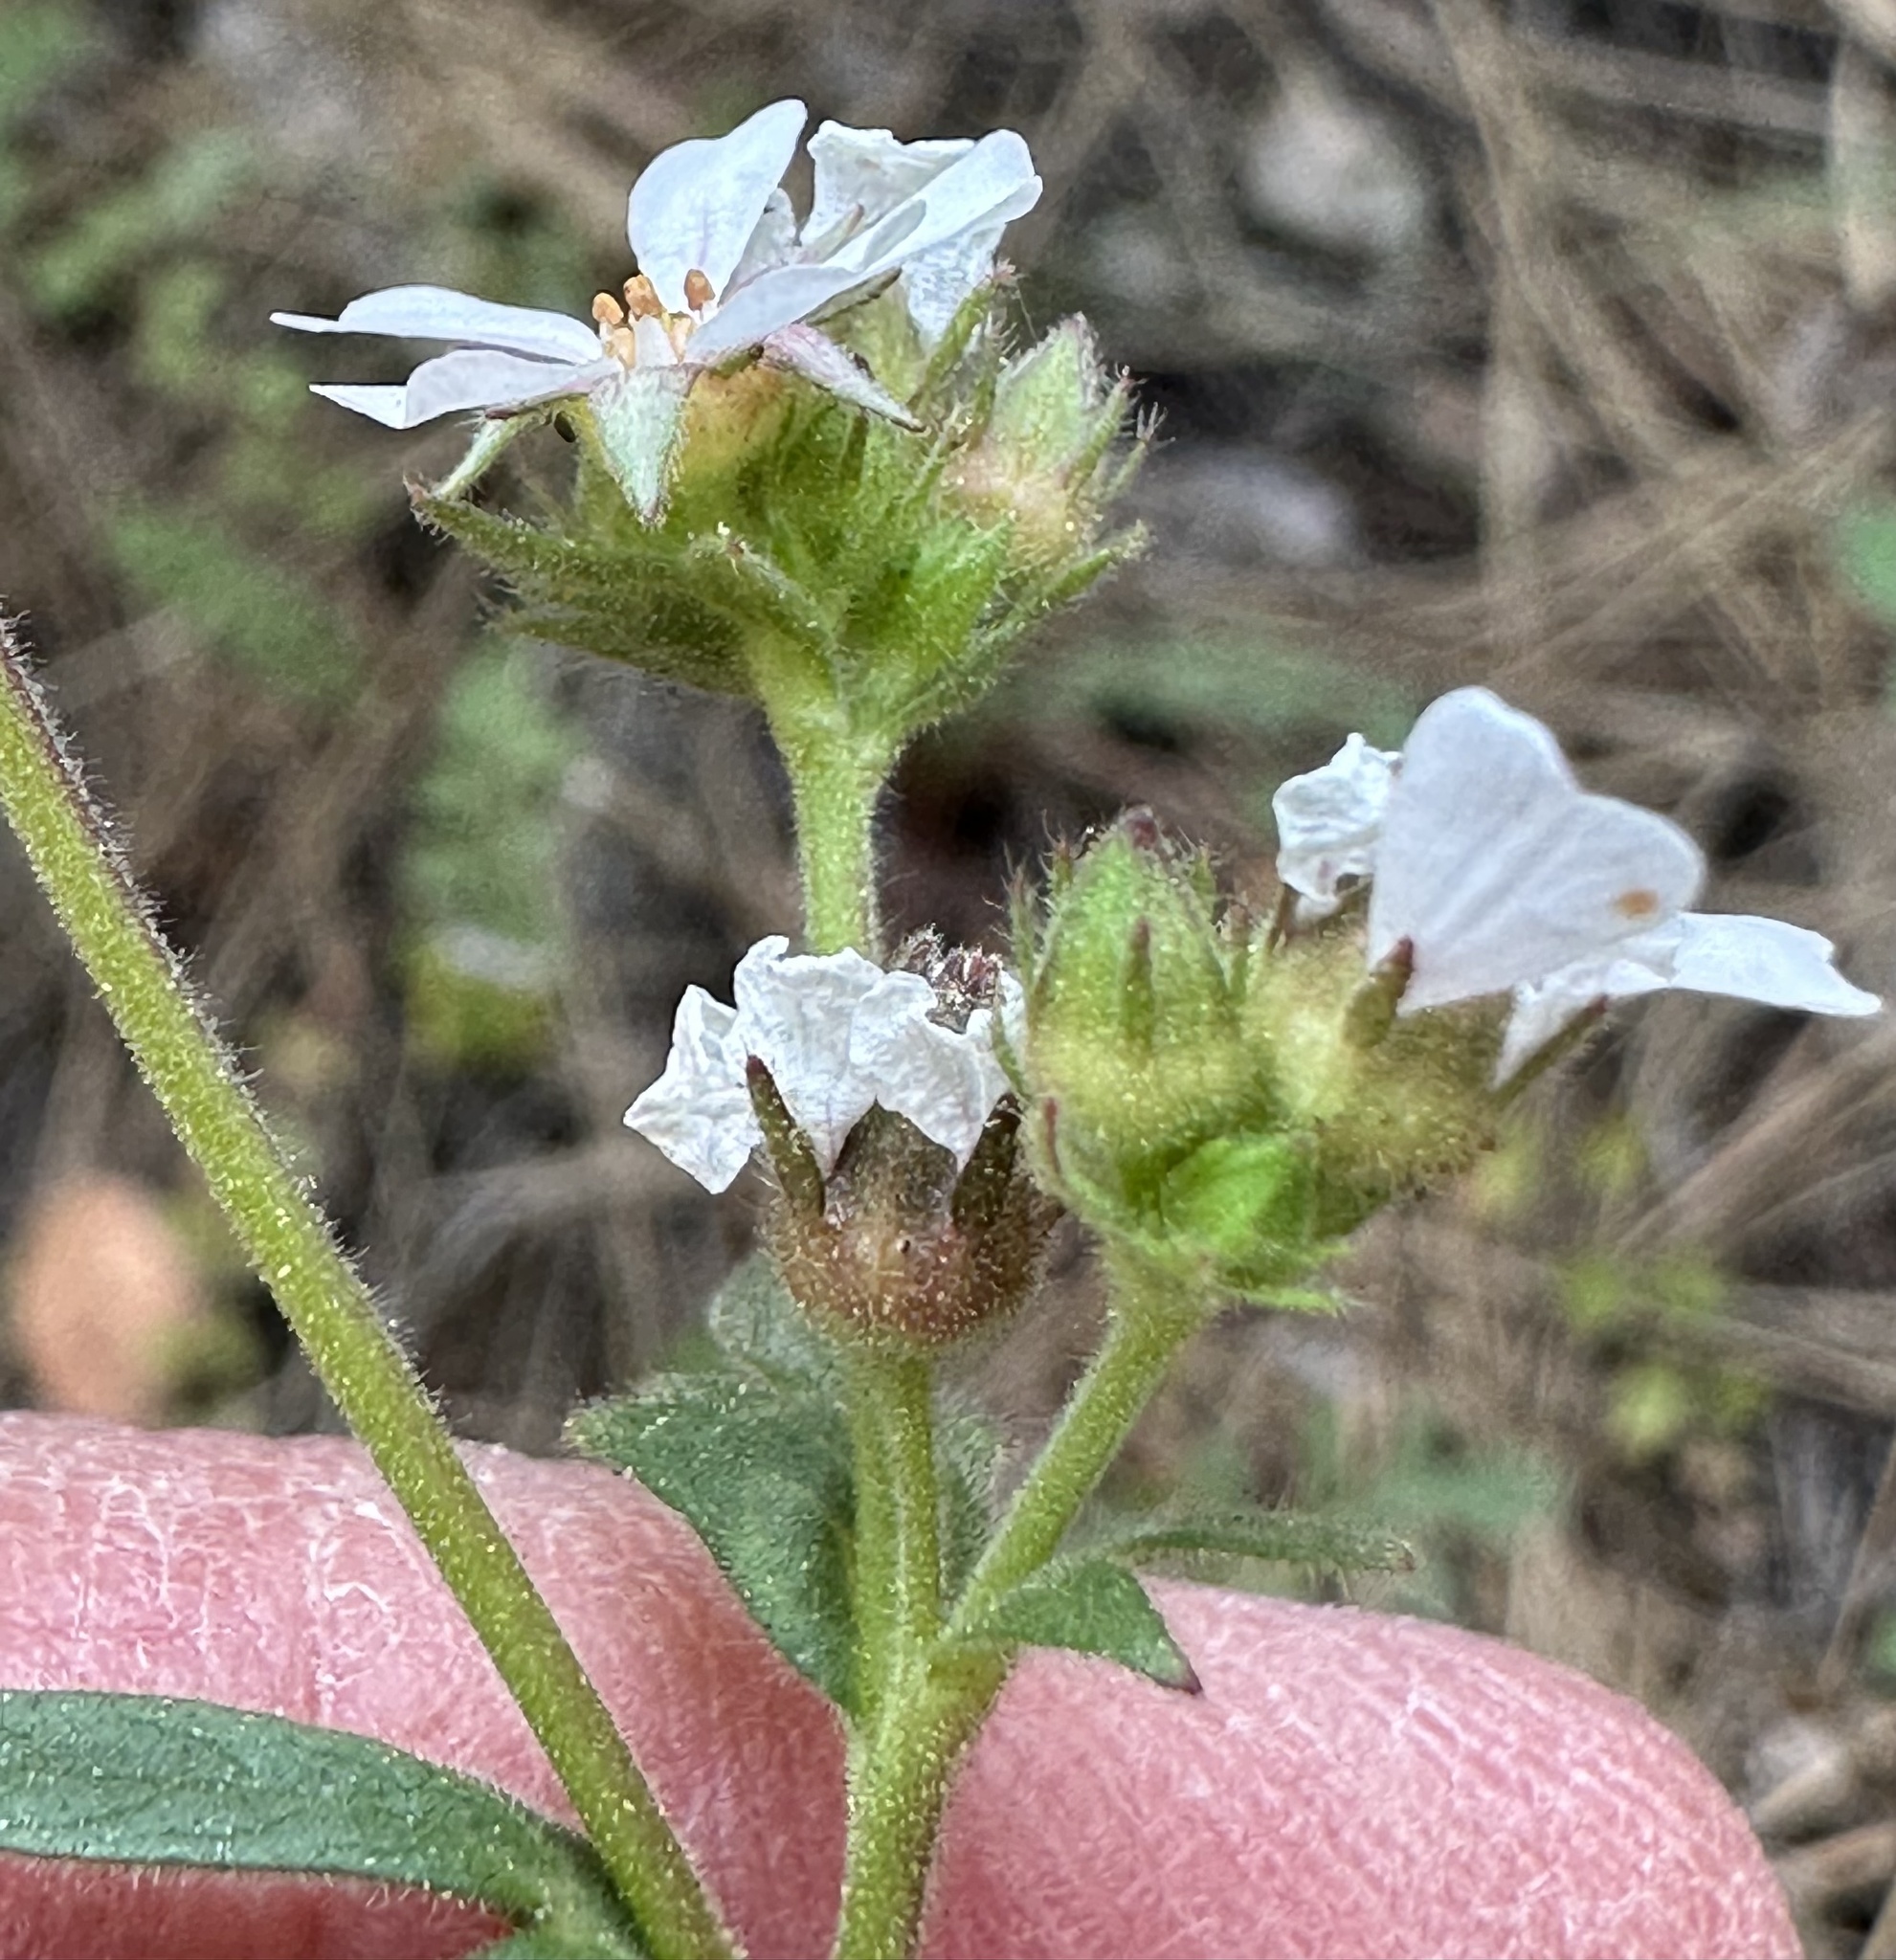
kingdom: Plantae
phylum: Tracheophyta
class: Magnoliopsida
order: Rosales
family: Rosaceae
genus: Potentilla
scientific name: Potentilla douglasii
